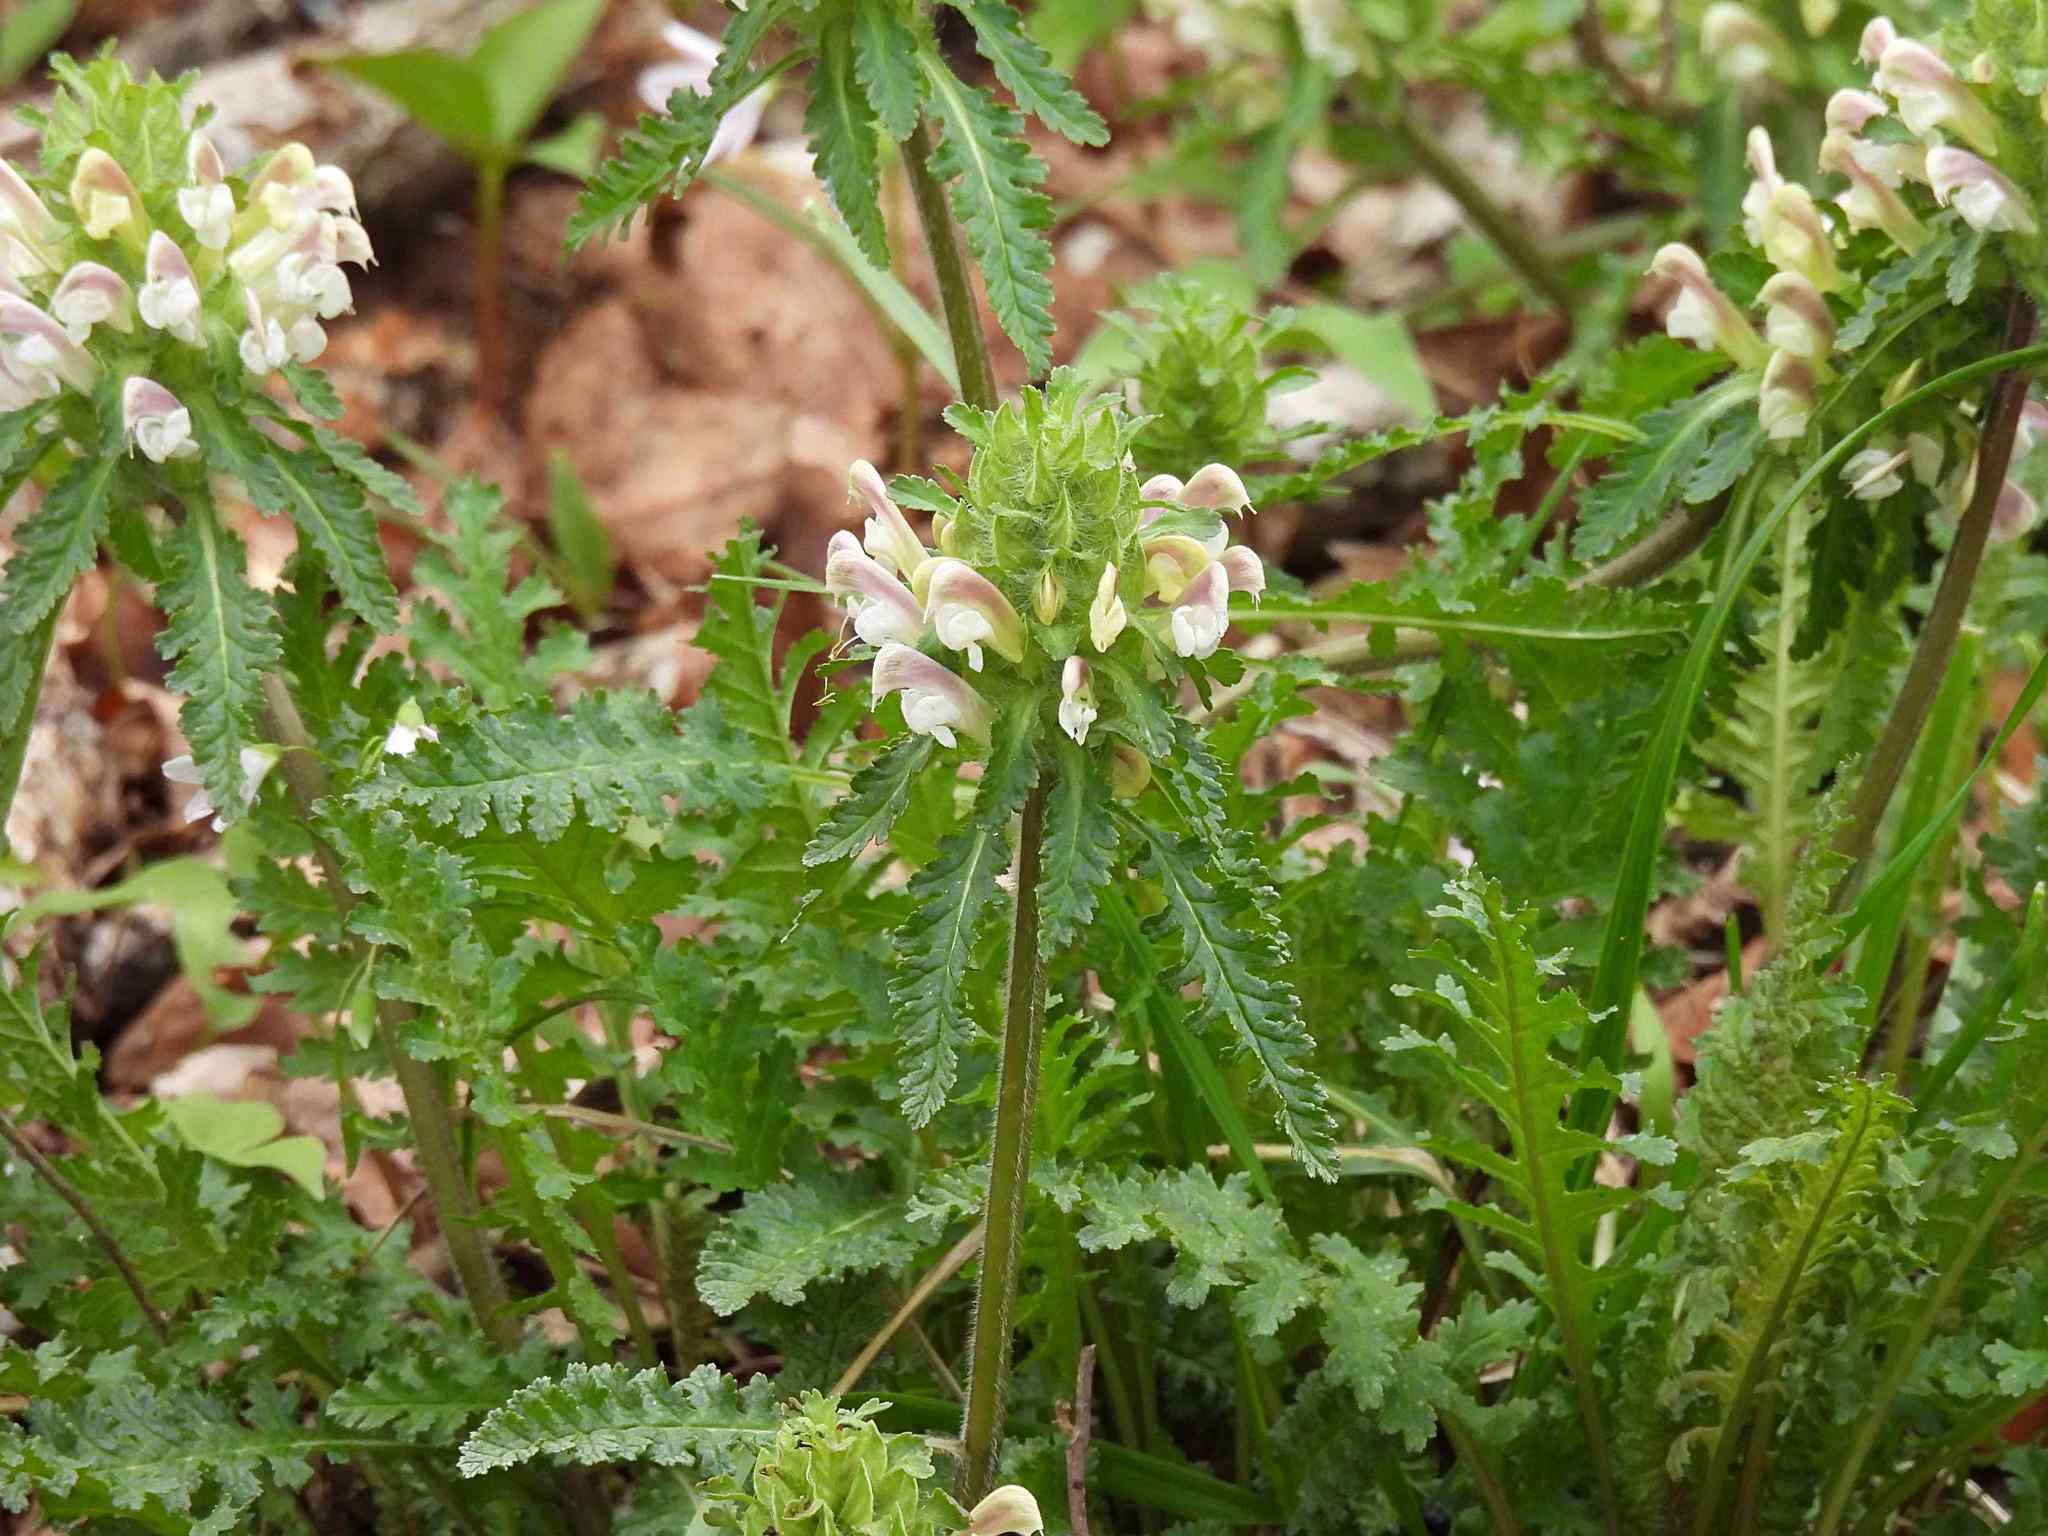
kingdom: Plantae
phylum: Tracheophyta
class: Magnoliopsida
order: Lamiales
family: Orobanchaceae
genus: Pedicularis
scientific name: Pedicularis canadensis
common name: Early lousewort
